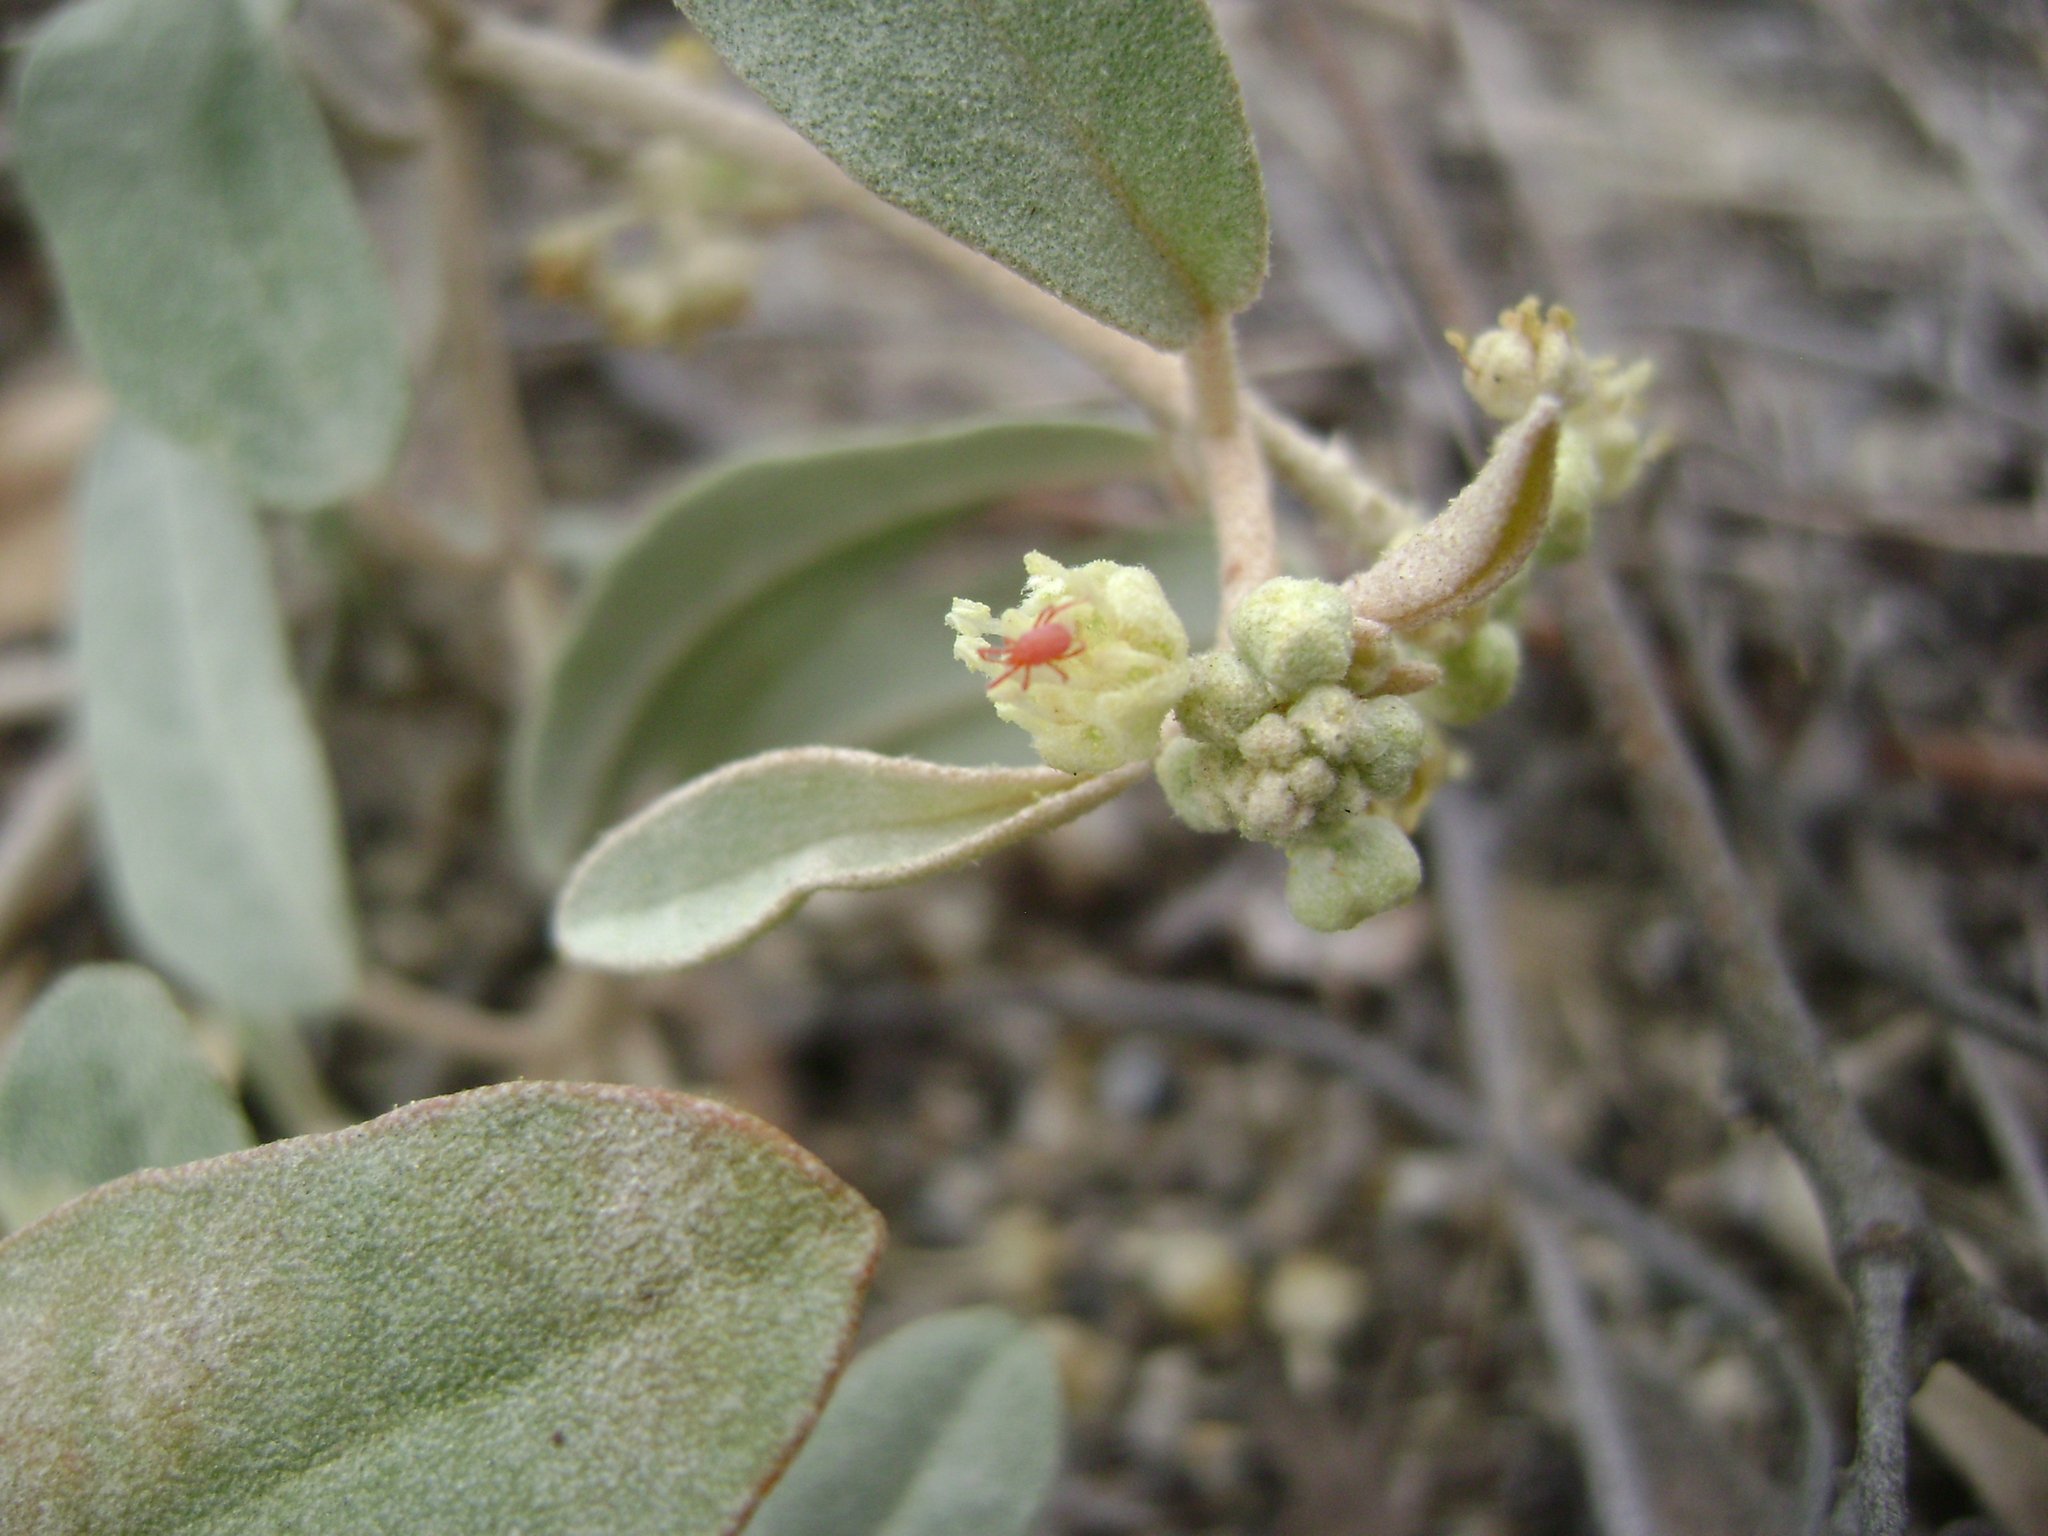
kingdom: Plantae
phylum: Tracheophyta
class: Magnoliopsida
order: Malpighiales
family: Euphorbiaceae
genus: Croton
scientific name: Croton californicus
